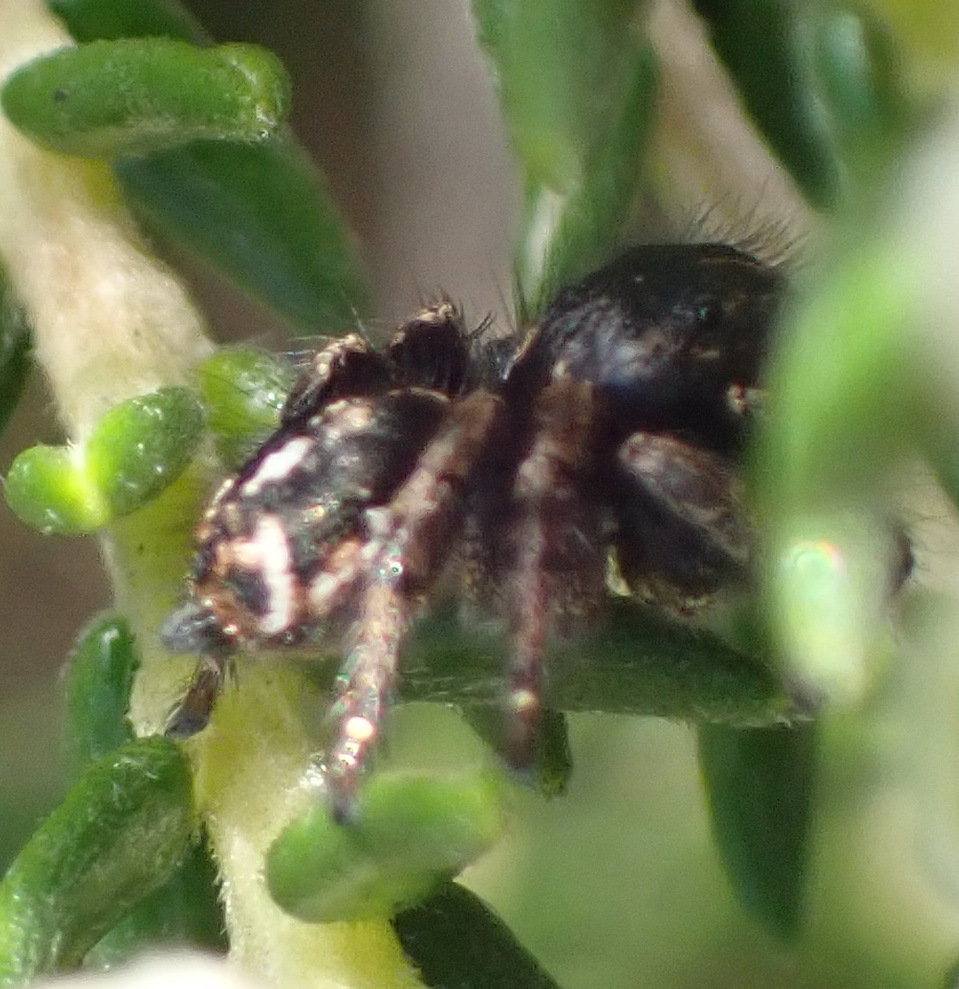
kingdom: Animalia
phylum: Arthropoda
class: Arachnida
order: Araneae
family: Salticidae
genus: Baryphas
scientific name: Baryphas ahenus
